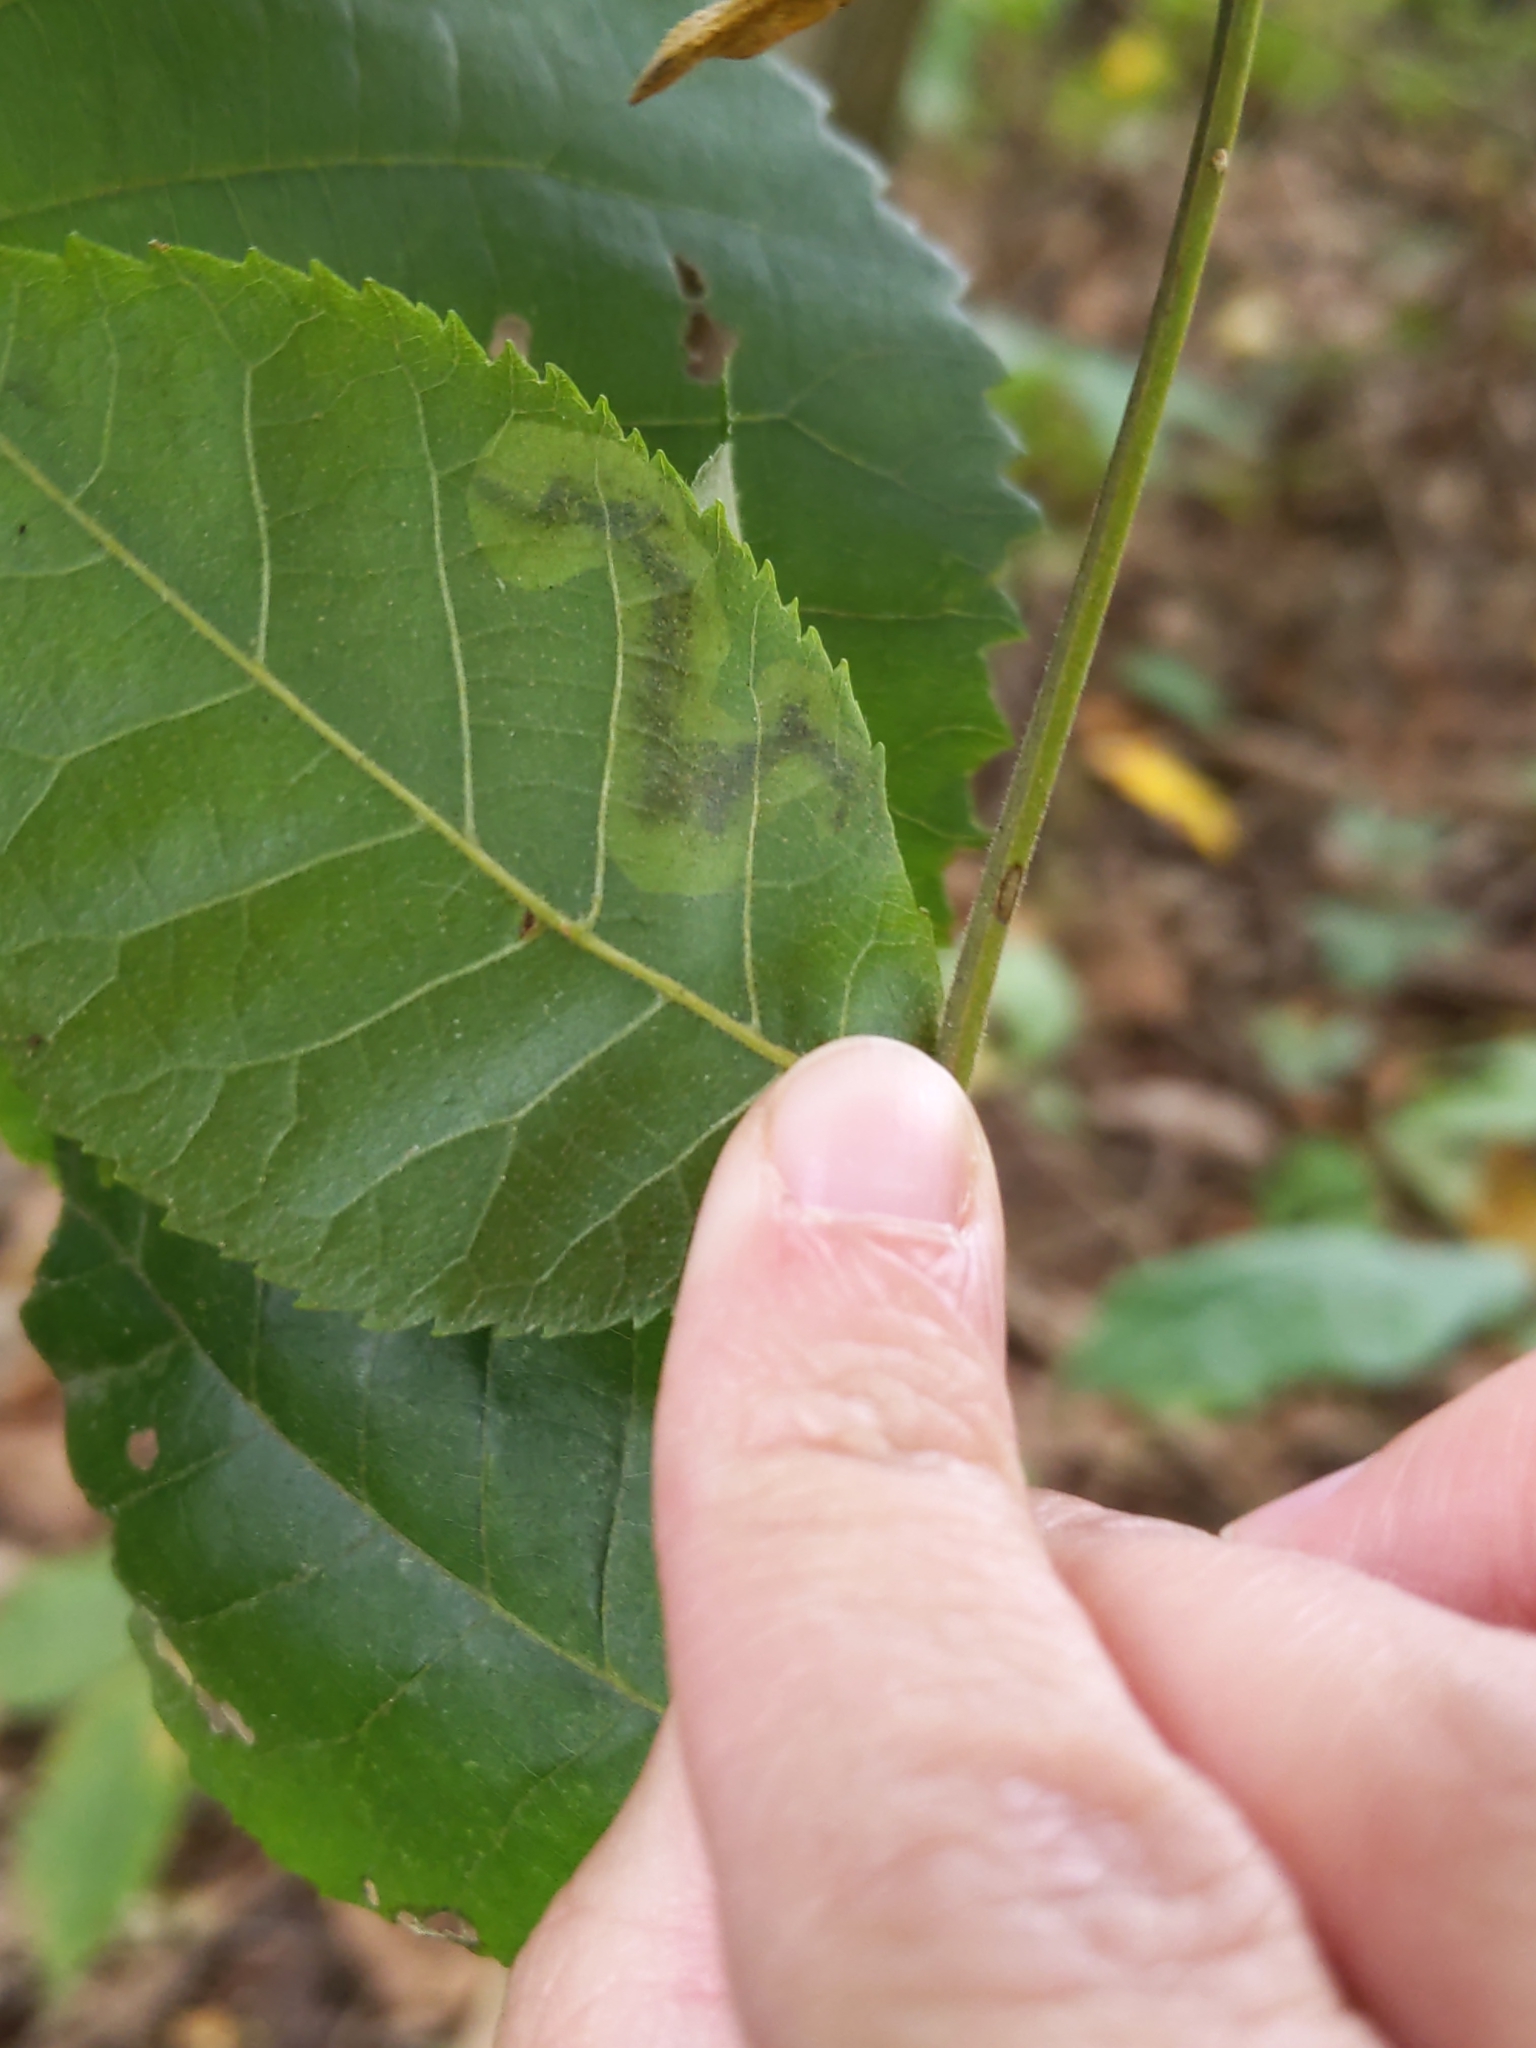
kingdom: Animalia
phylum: Arthropoda
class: Insecta
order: Lepidoptera
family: Gracillariidae
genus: Cameraria
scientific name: Cameraria caryaefoliella
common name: Pecan leafminer moth
